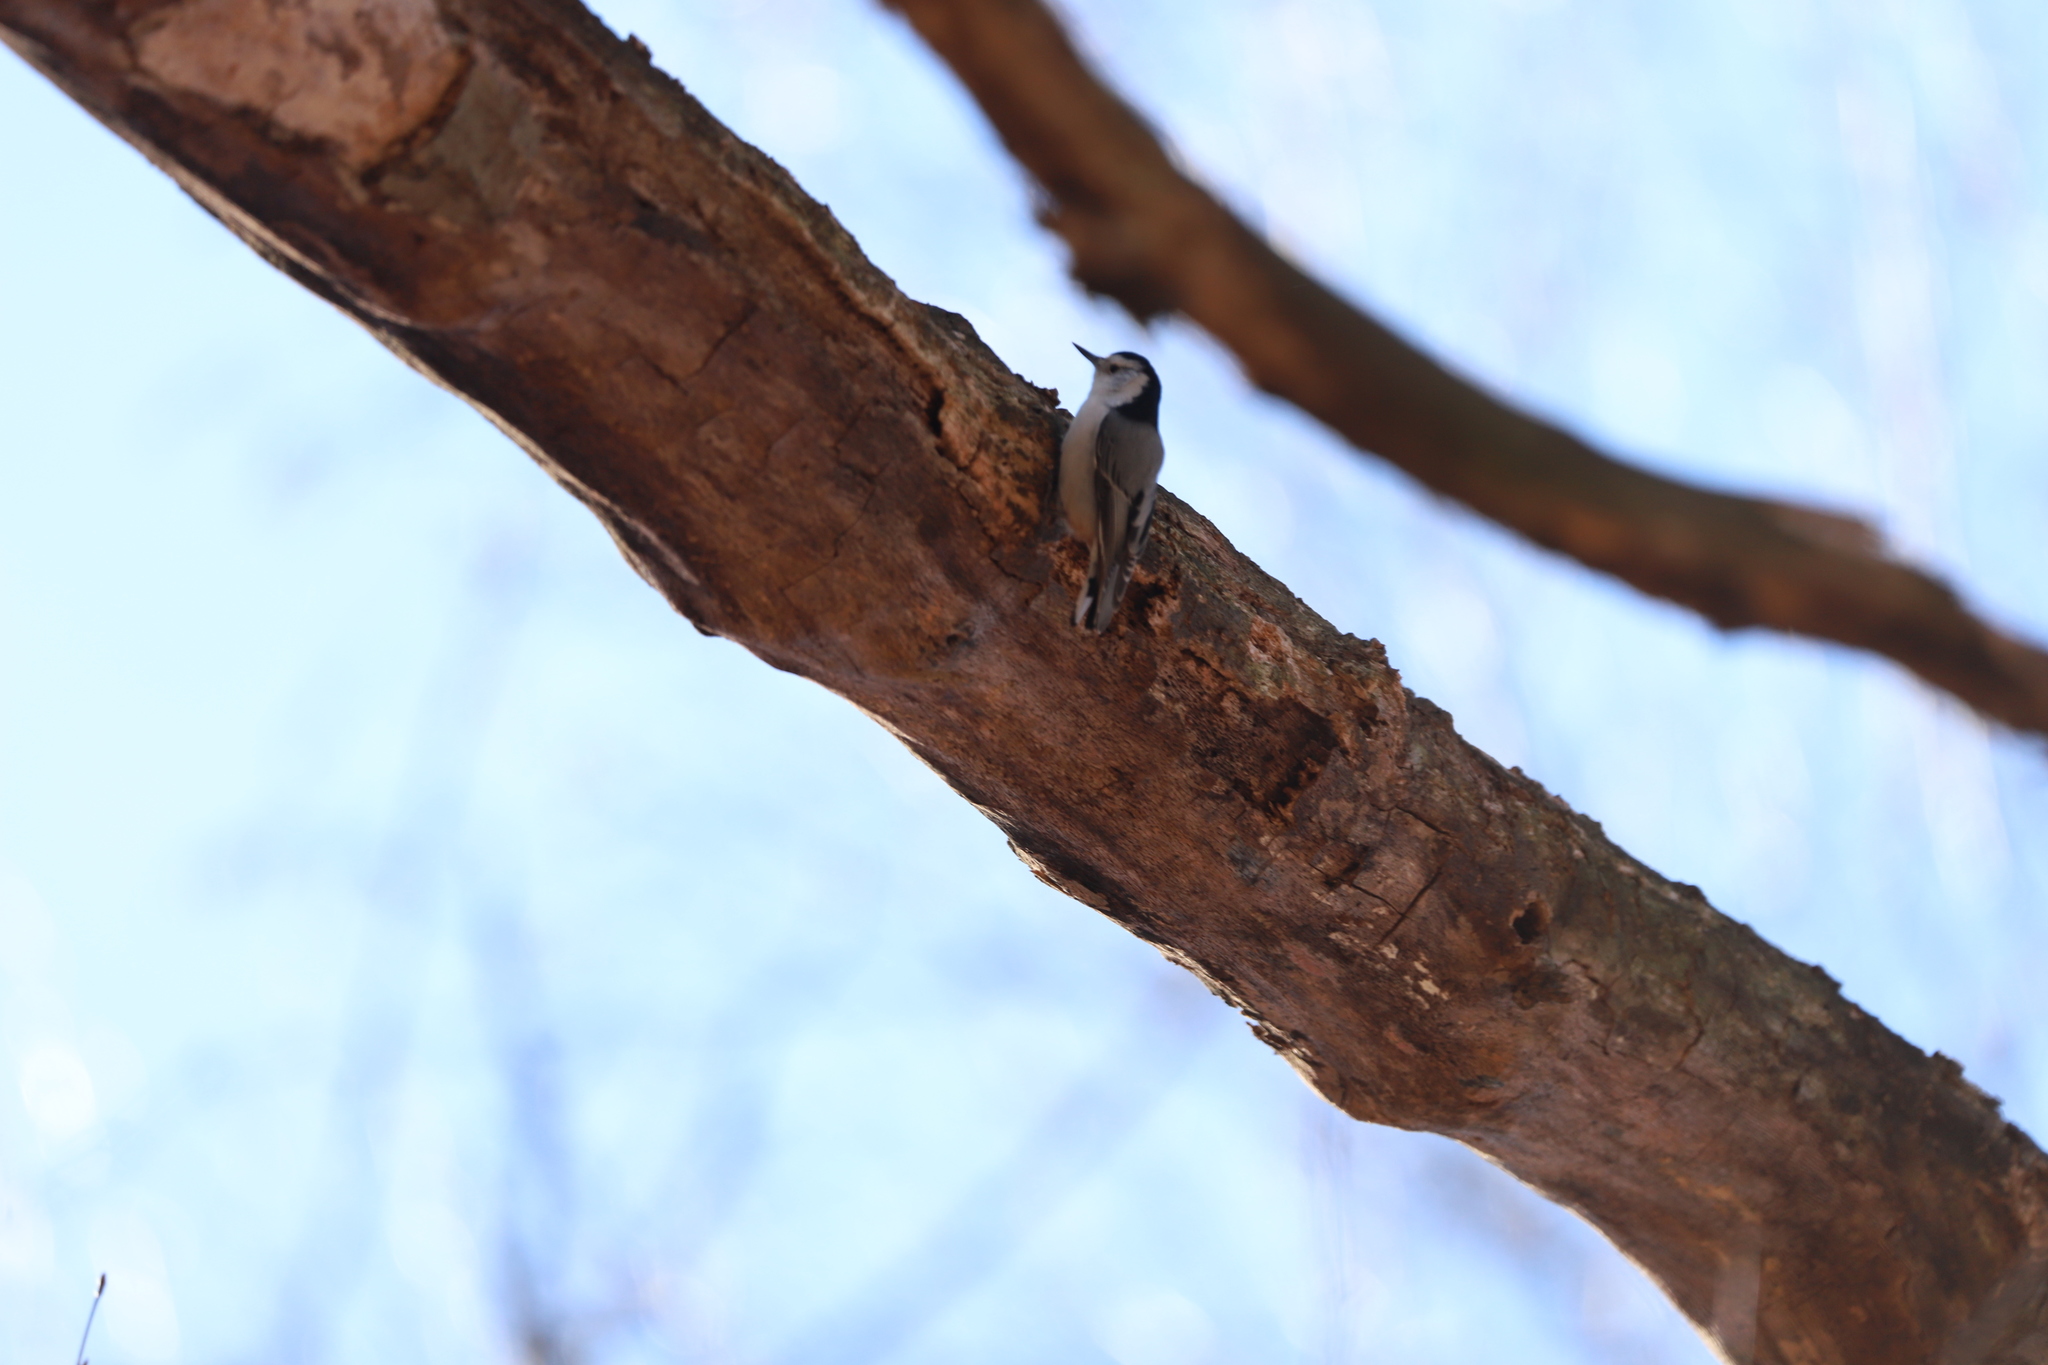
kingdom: Animalia
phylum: Chordata
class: Aves
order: Passeriformes
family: Sittidae
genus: Sitta
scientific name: Sitta carolinensis
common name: White-breasted nuthatch
